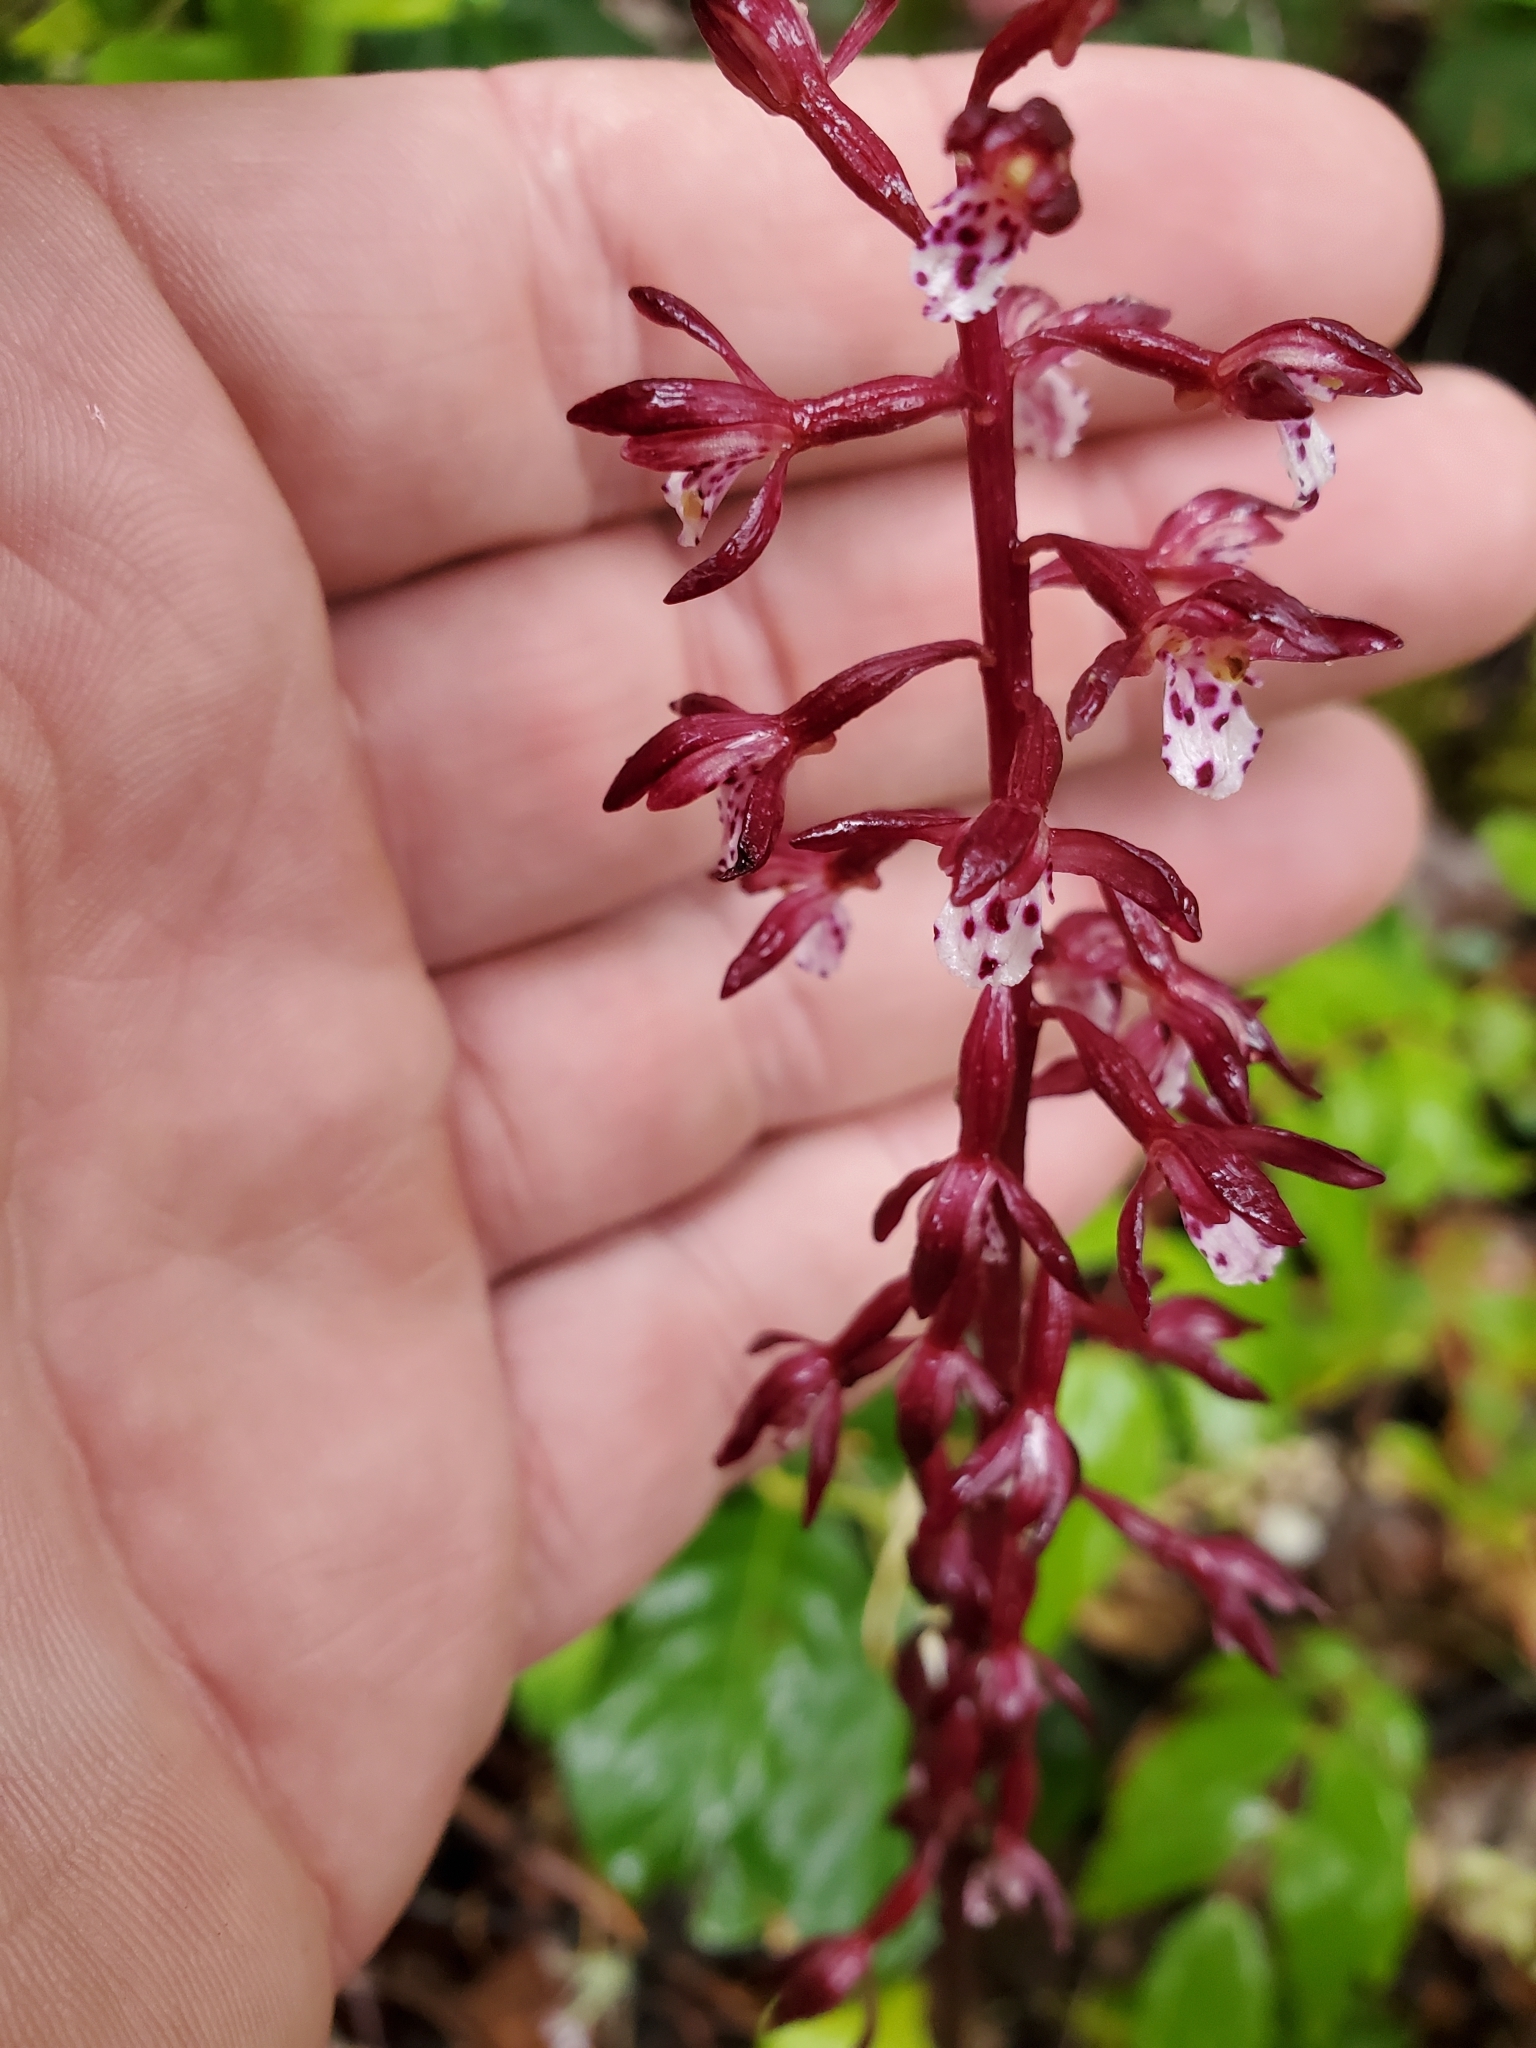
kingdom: Plantae
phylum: Tracheophyta
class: Liliopsida
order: Asparagales
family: Orchidaceae
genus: Corallorhiza
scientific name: Corallorhiza maculata
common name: Spotted coralroot
